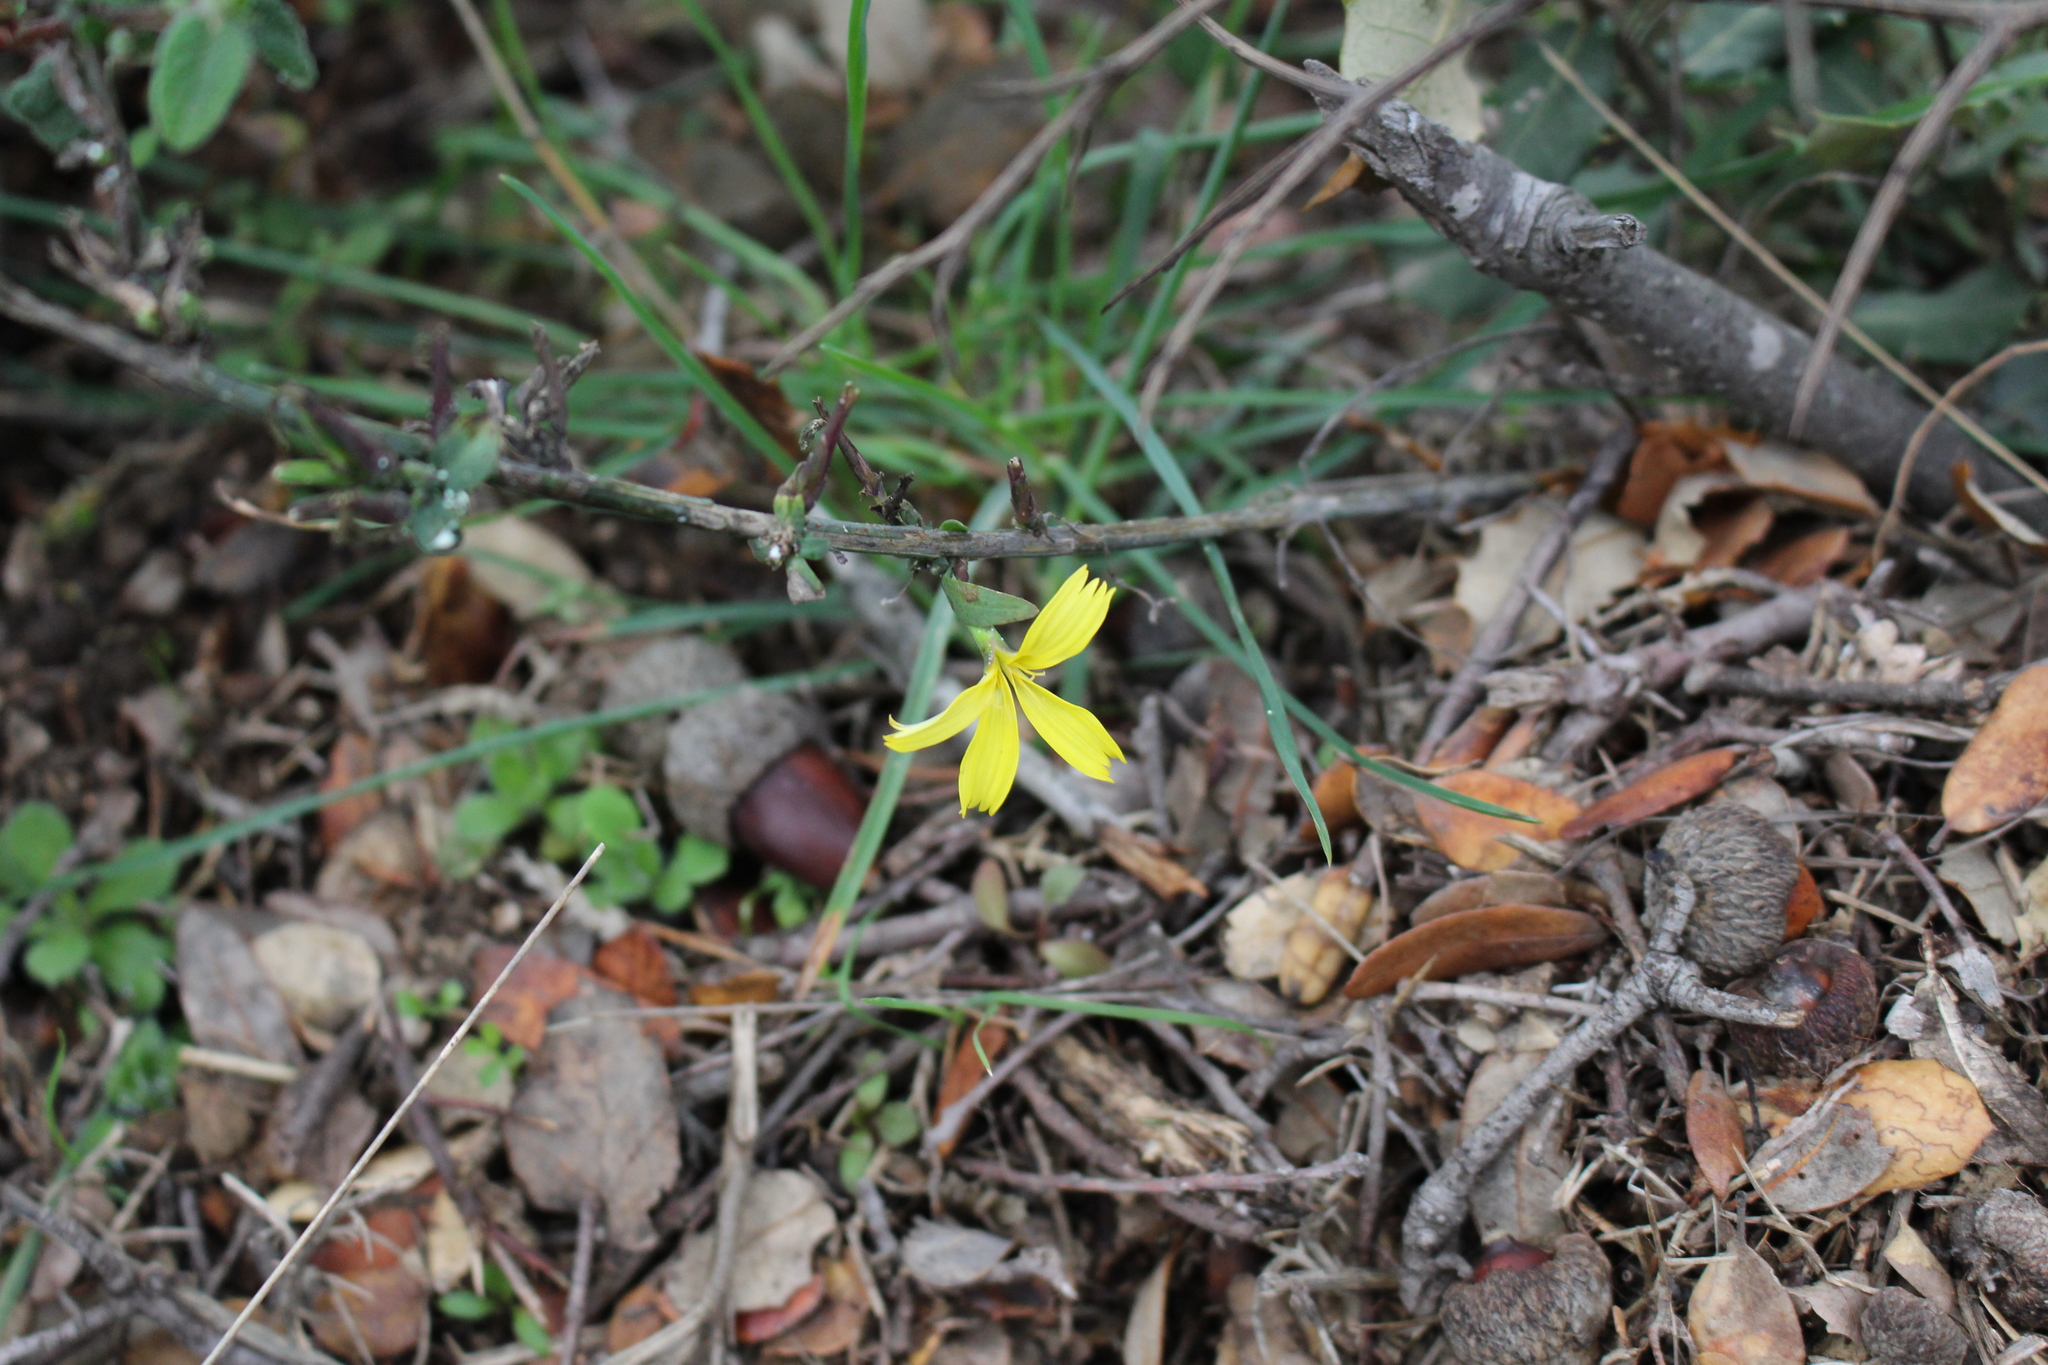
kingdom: Plantae
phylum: Tracheophyta
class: Magnoliopsida
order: Asterales
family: Asteraceae
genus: Lactuca
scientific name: Lactuca viminea
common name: Pliant lettuce
